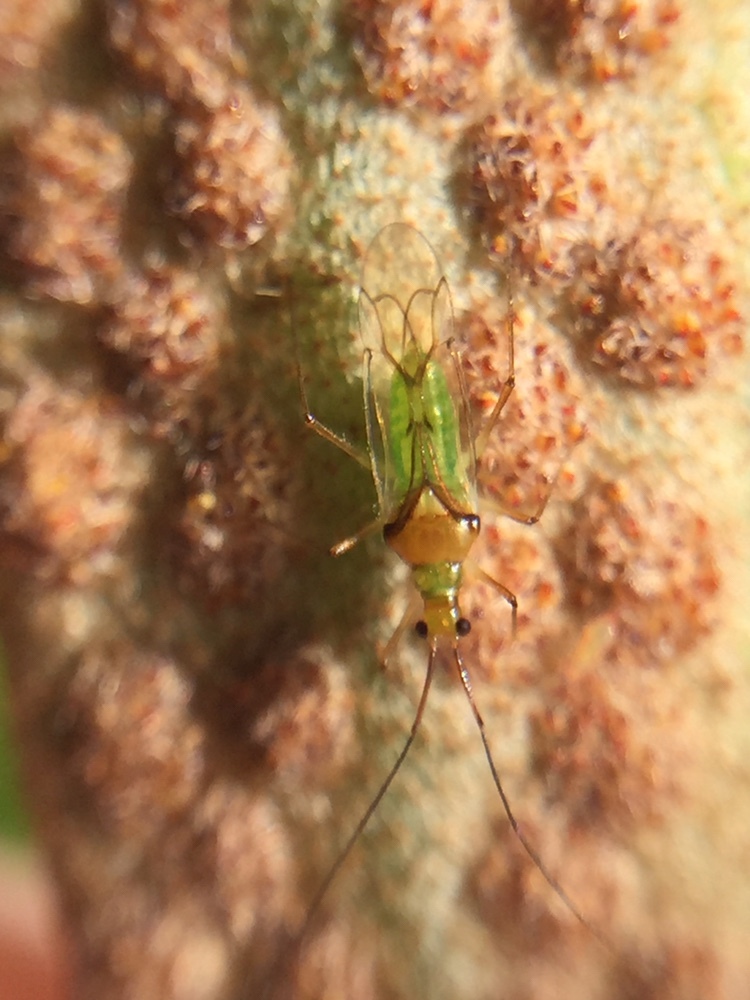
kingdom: Animalia
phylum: Arthropoda
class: Insecta
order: Hemiptera
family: Miridae
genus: Felisacus
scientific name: Felisacus elegantulus
